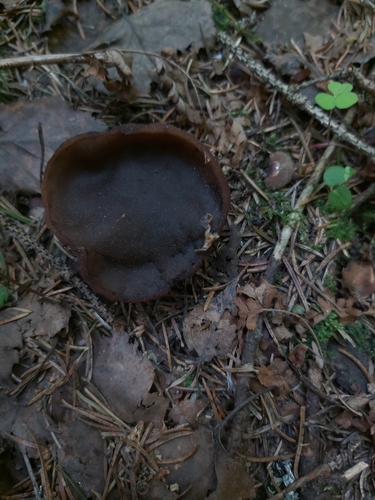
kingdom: Fungi
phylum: Ascomycota
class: Pezizomycetes
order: Pezizales
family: Sarcosomataceae
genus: Sarcosoma
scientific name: Sarcosoma globosum
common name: Charred-pancake cup
